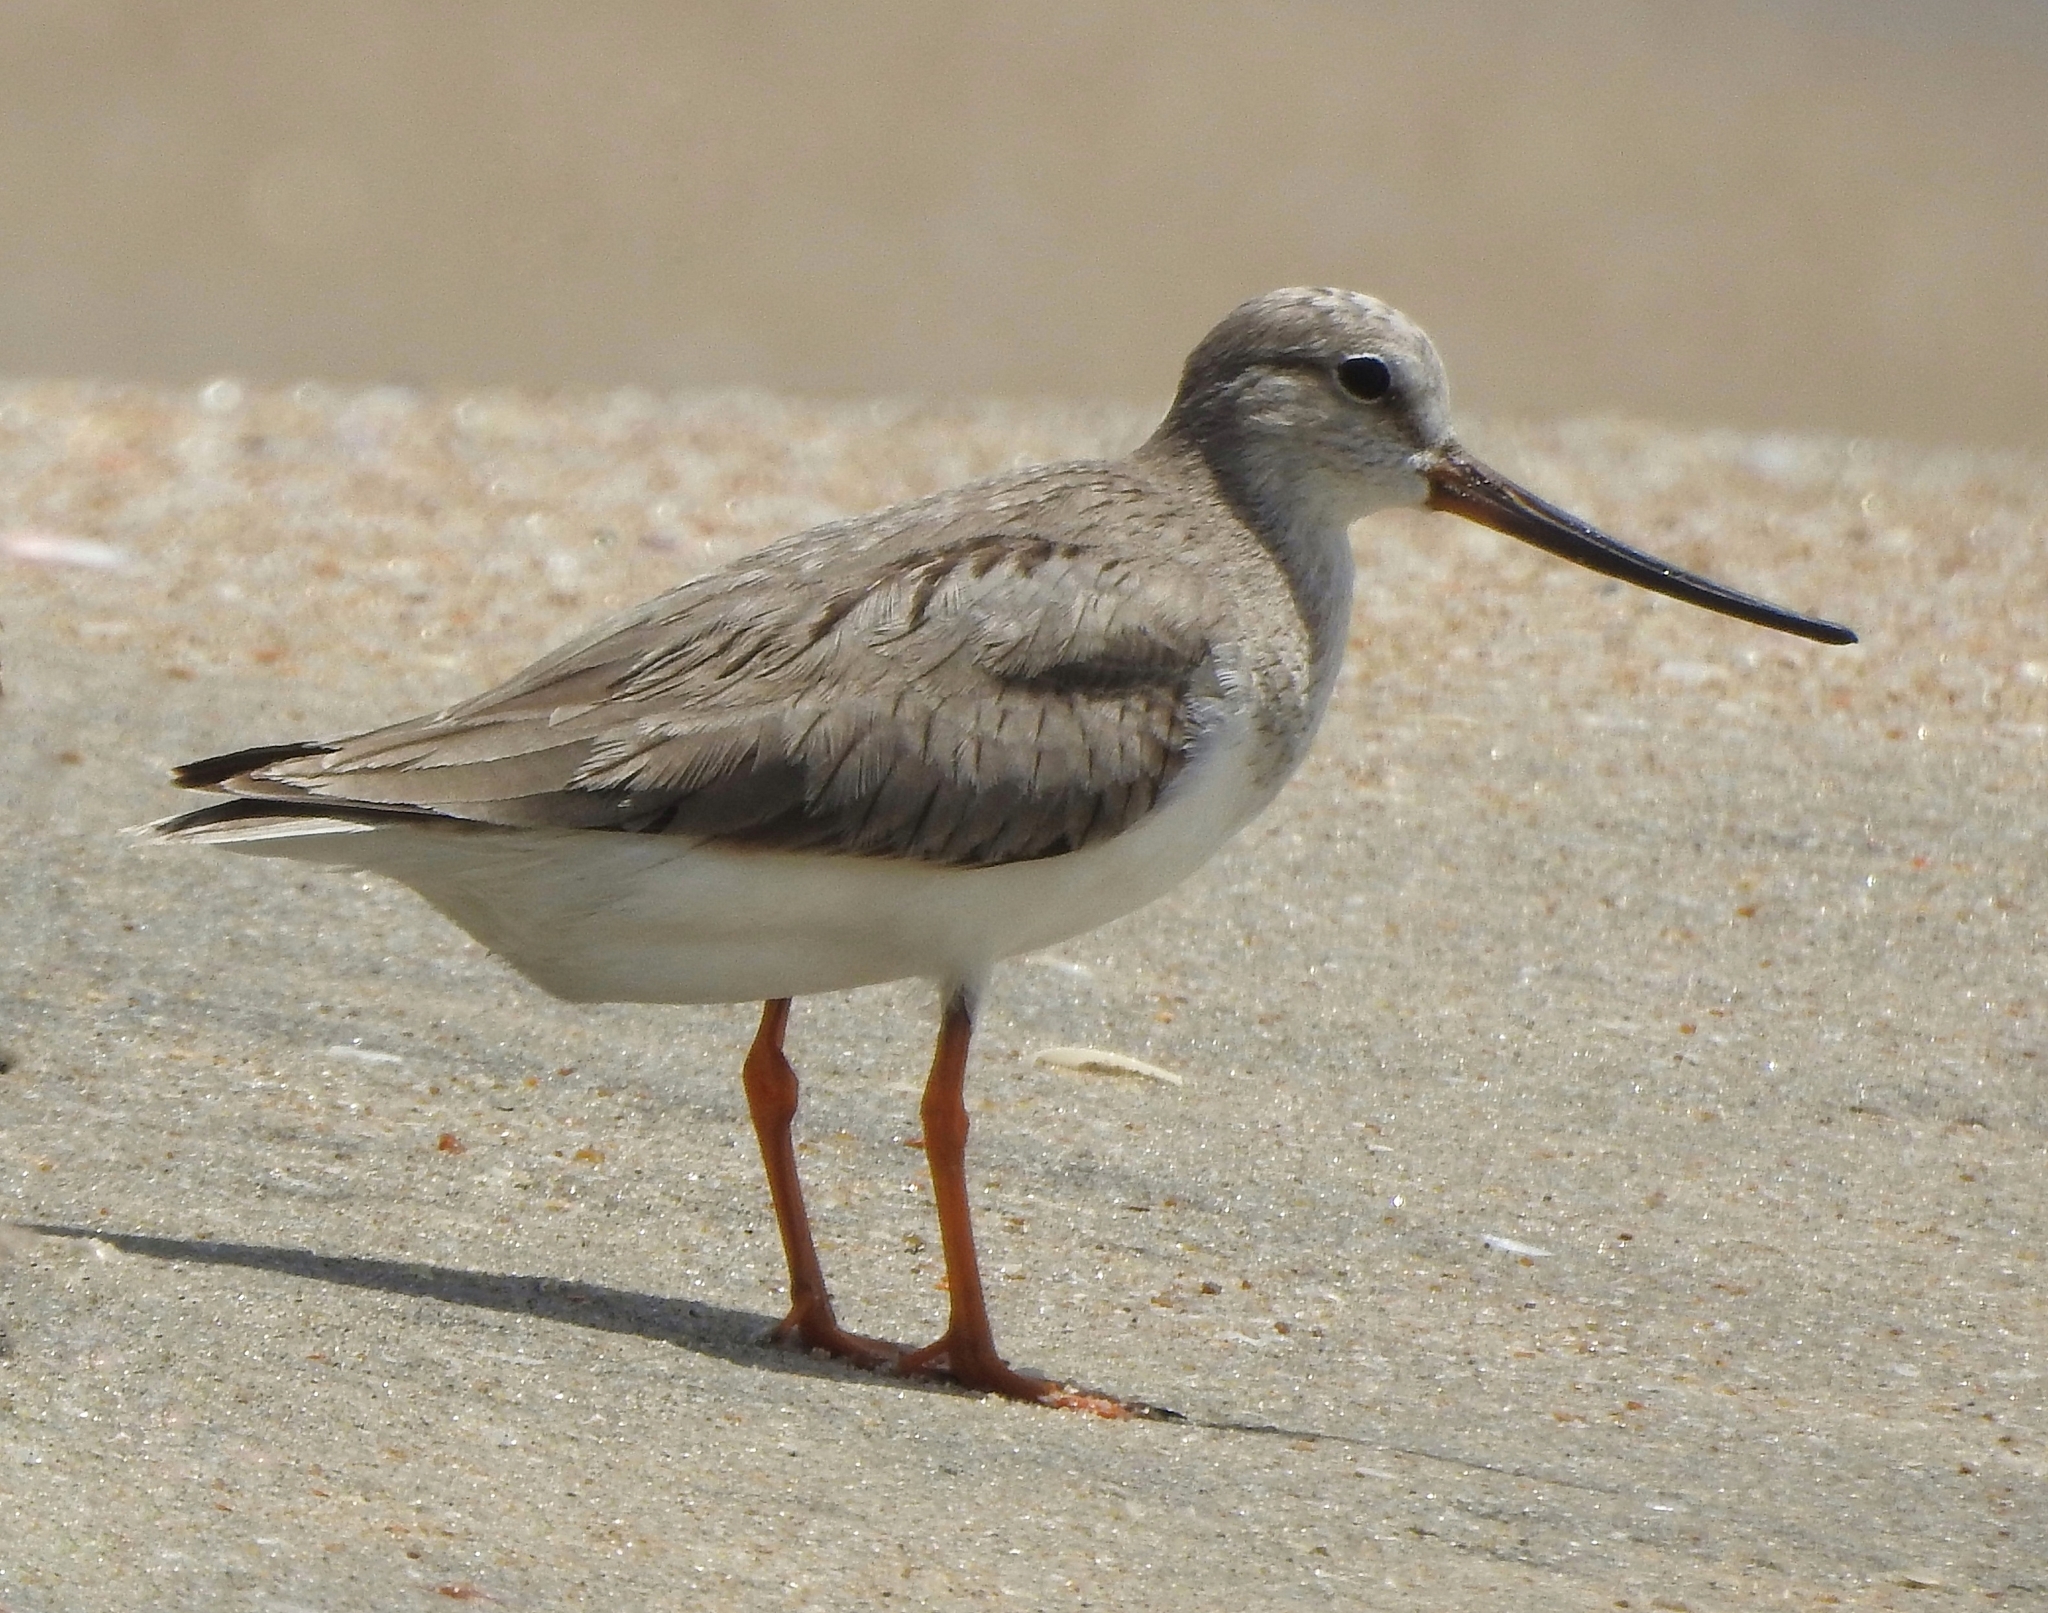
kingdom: Animalia
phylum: Chordata
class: Aves
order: Charadriiformes
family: Scolopacidae
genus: Xenus
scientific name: Xenus cinereus
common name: Terek sandpiper
